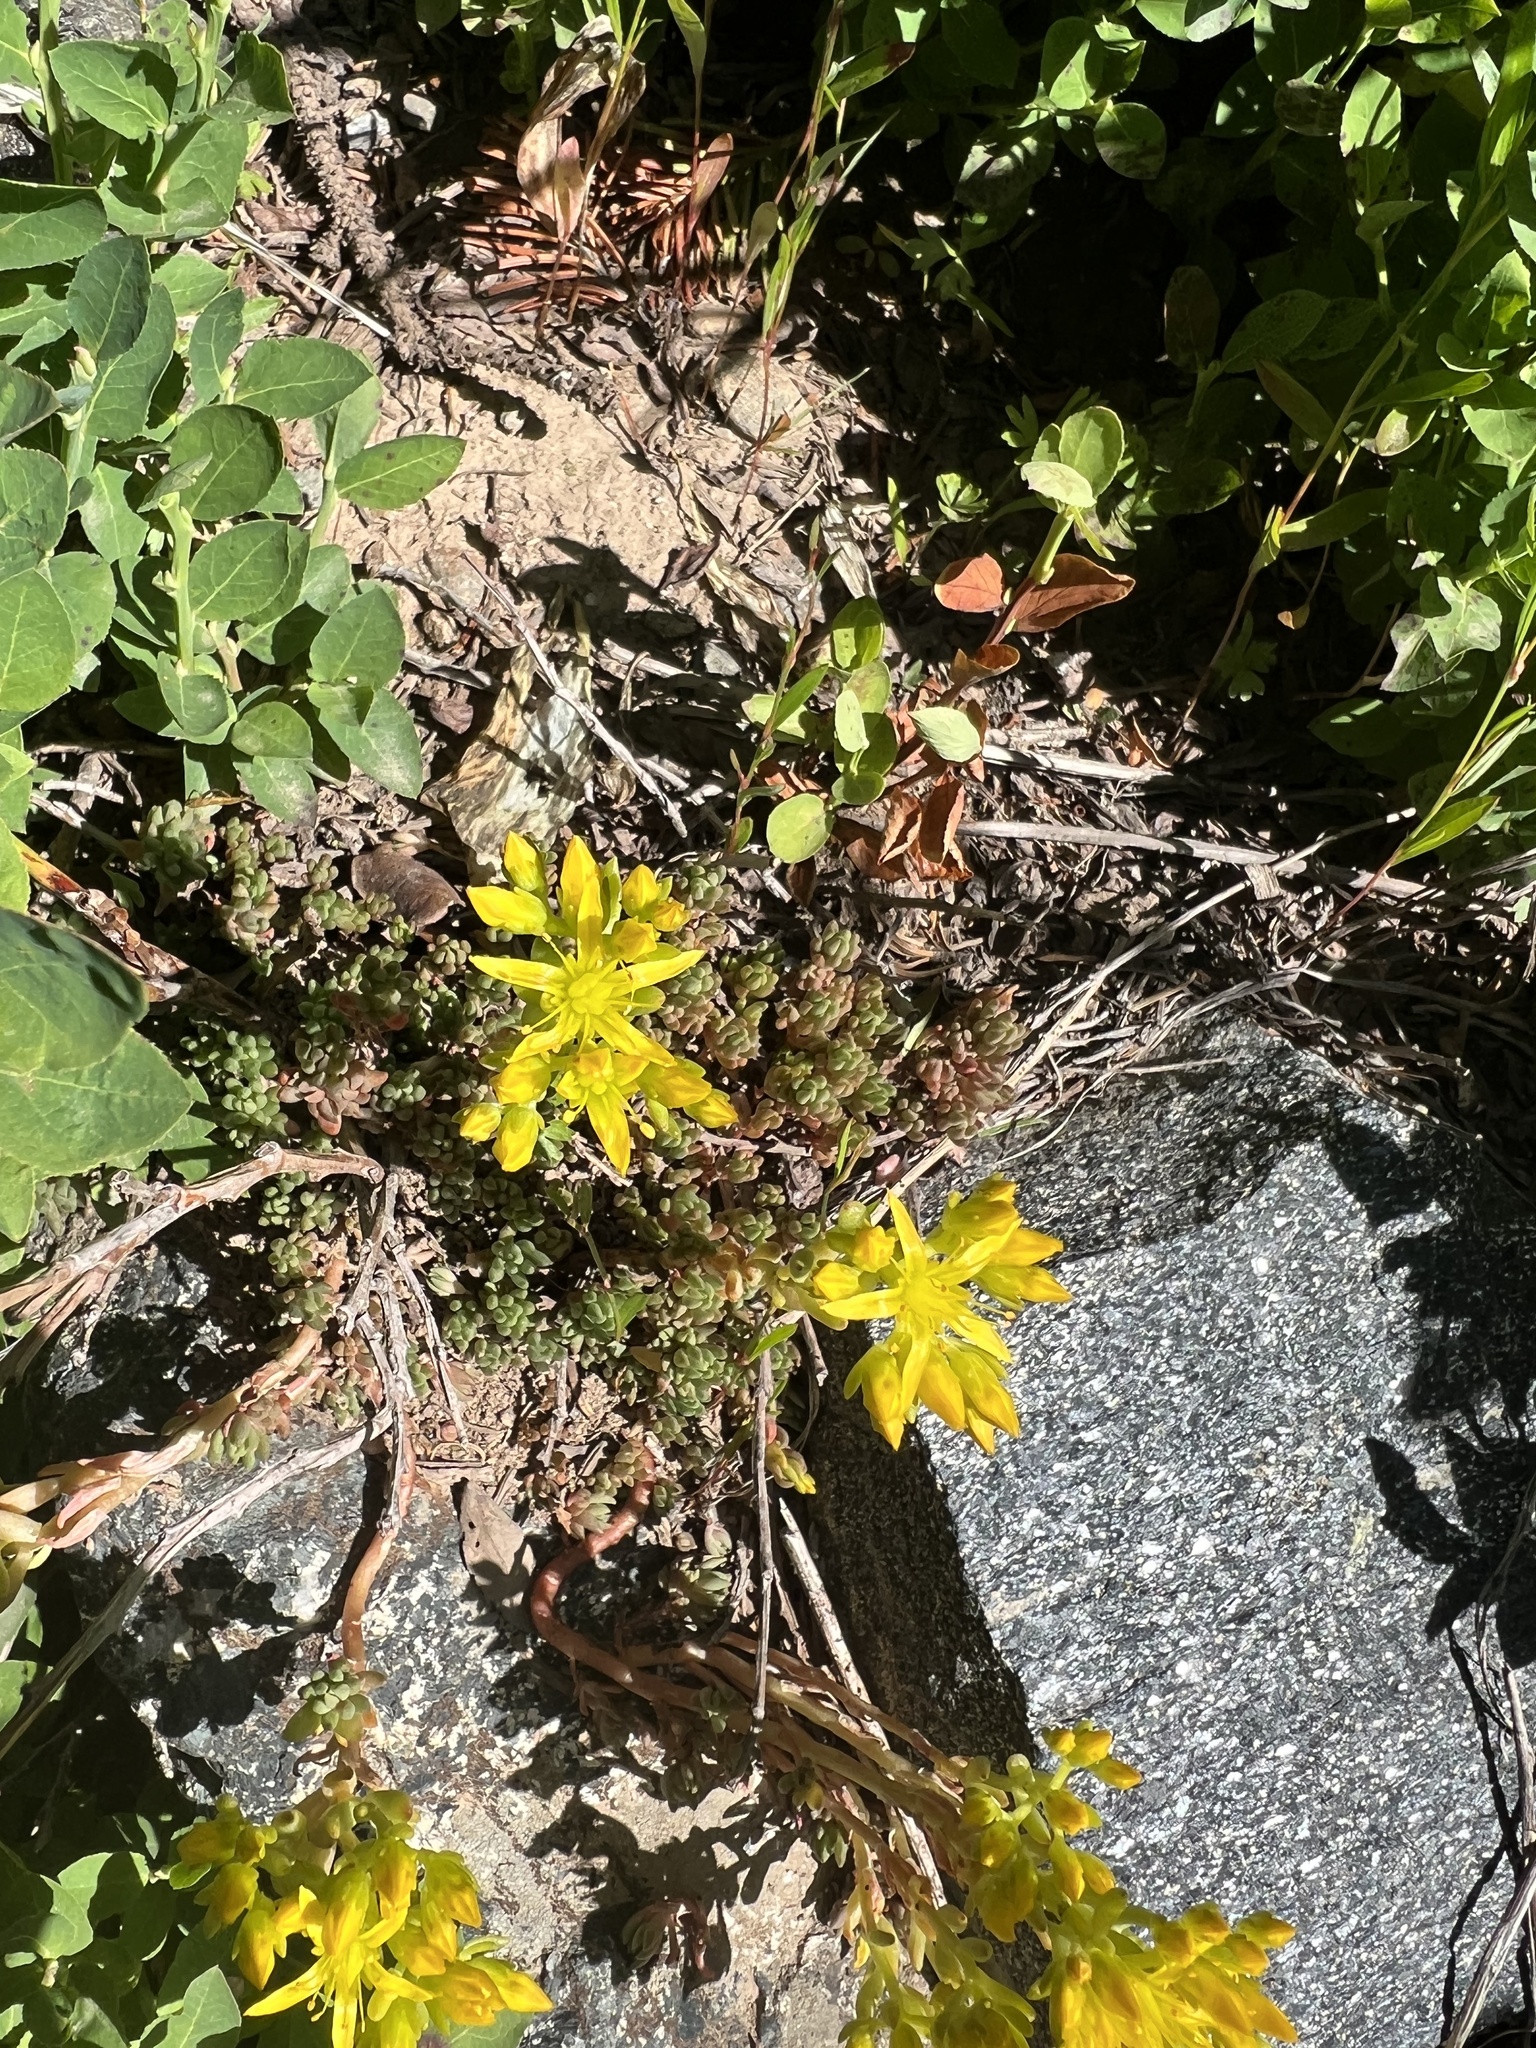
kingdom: Plantae
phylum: Tracheophyta
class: Magnoliopsida
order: Saxifragales
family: Crassulaceae
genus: Sedum
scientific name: Sedum lanceolatum
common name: Common stonecrop
